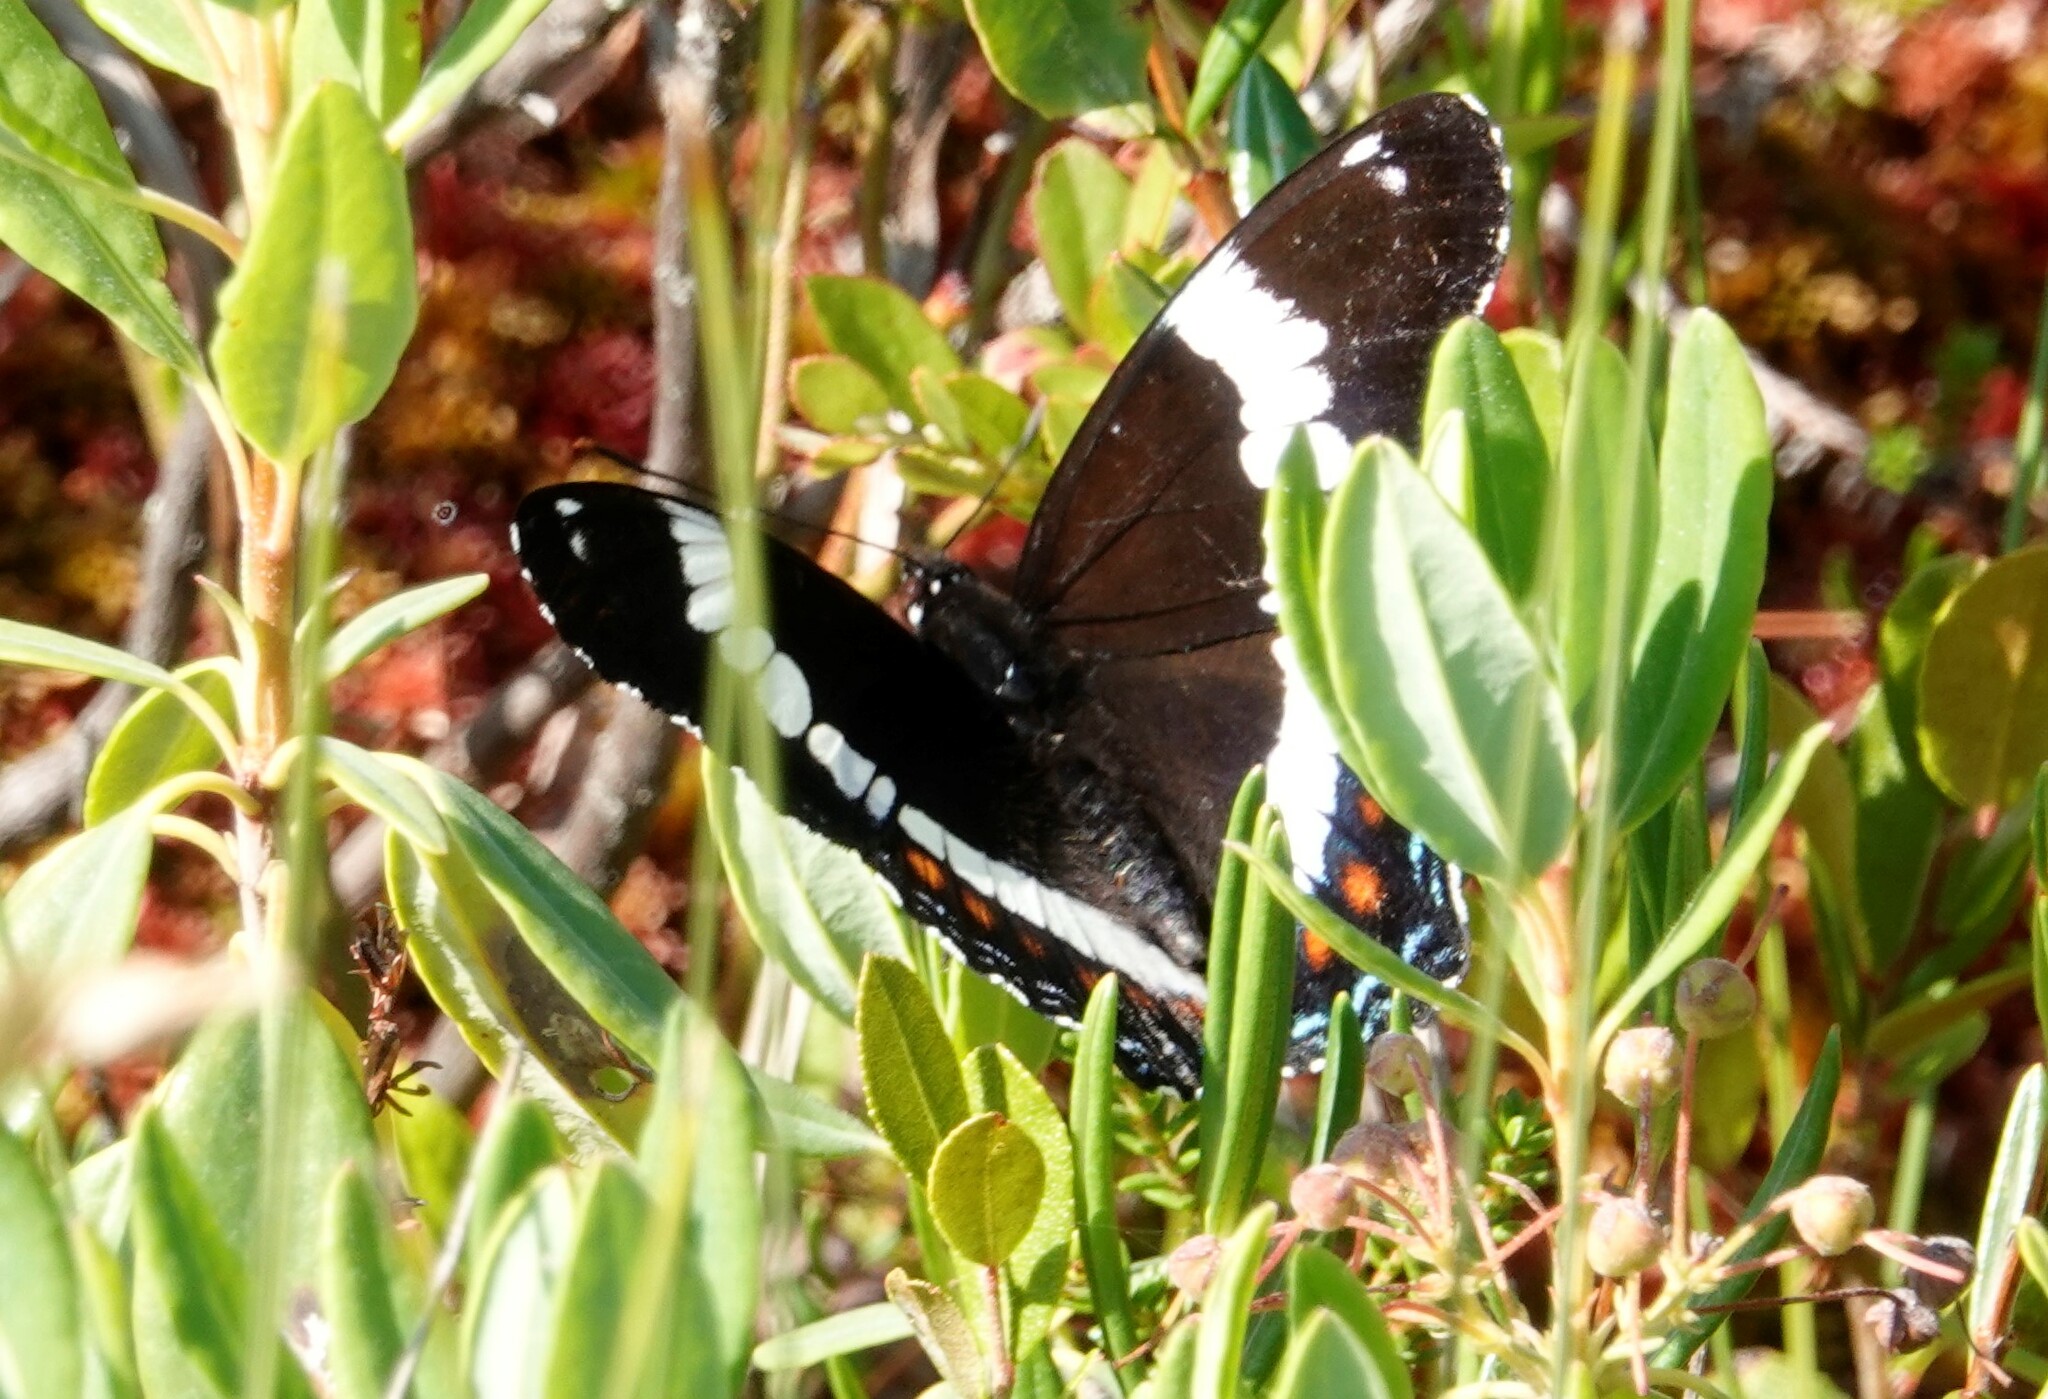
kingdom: Animalia
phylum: Arthropoda
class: Insecta
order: Lepidoptera
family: Nymphalidae
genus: Limenitis
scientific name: Limenitis arthemis
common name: Red-spotted admiral
